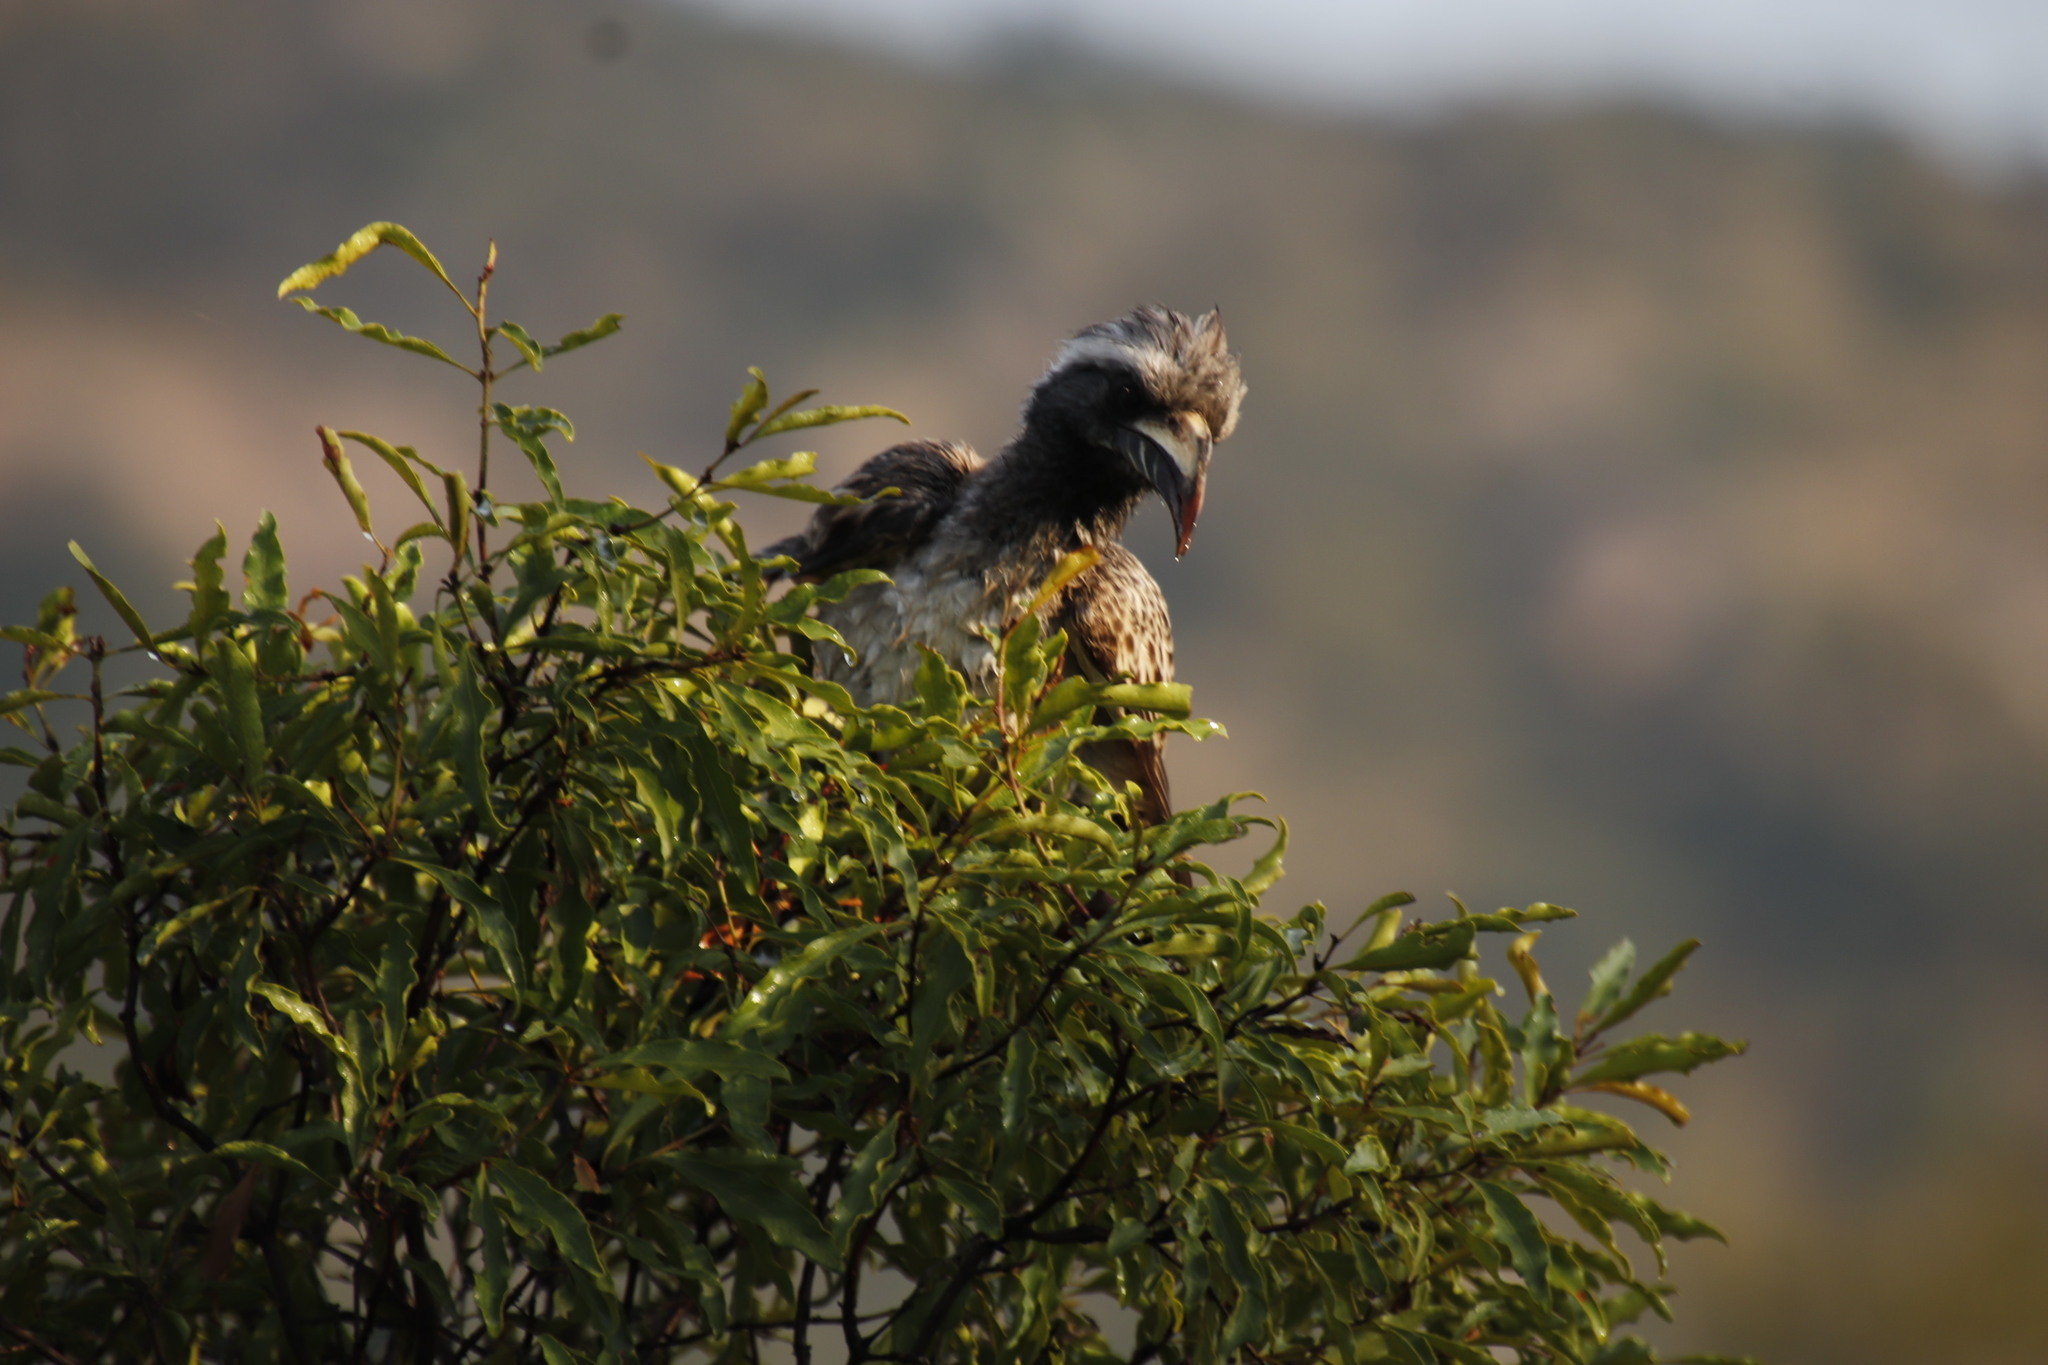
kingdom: Animalia
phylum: Chordata
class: Aves
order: Bucerotiformes
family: Bucerotidae
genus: Lophoceros
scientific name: Lophoceros nasutus
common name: African grey hornbill
